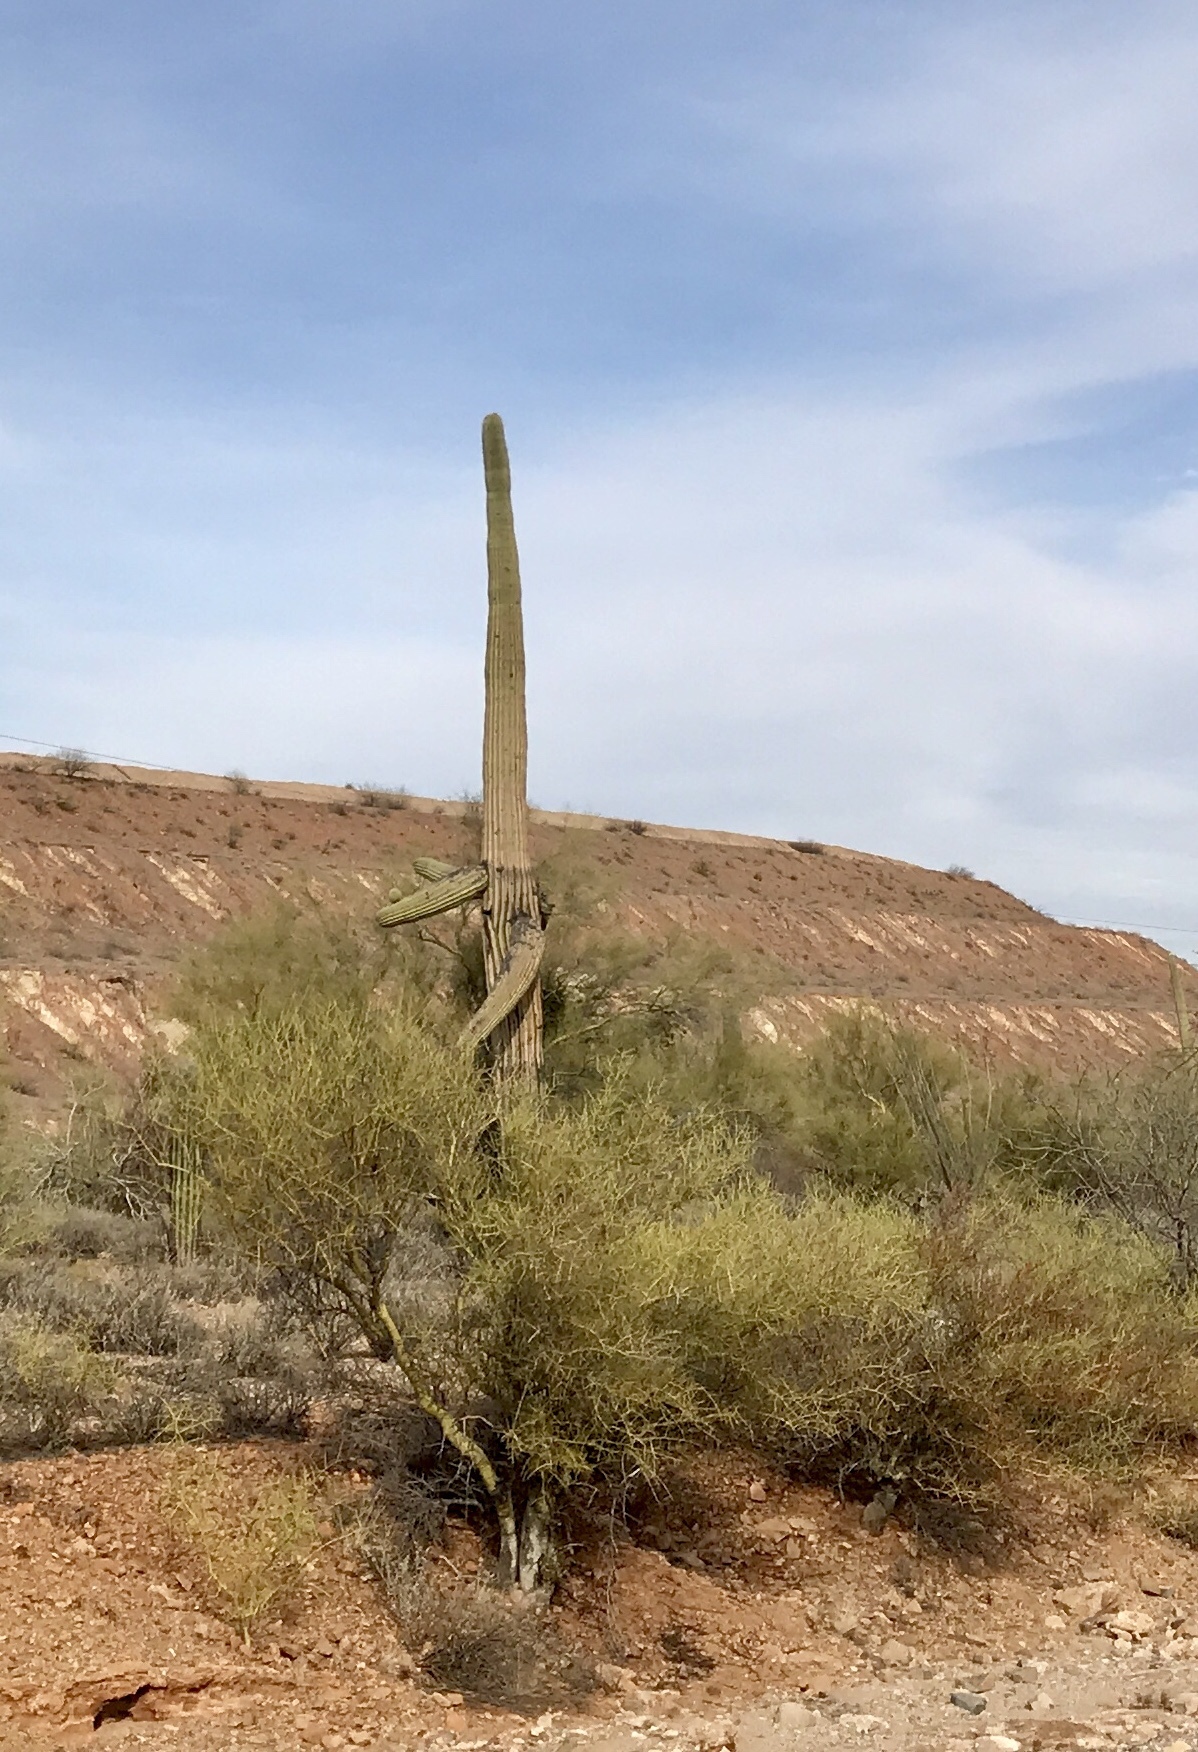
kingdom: Plantae
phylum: Tracheophyta
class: Magnoliopsida
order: Caryophyllales
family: Cactaceae
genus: Carnegiea
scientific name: Carnegiea gigantea
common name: Saguaro
